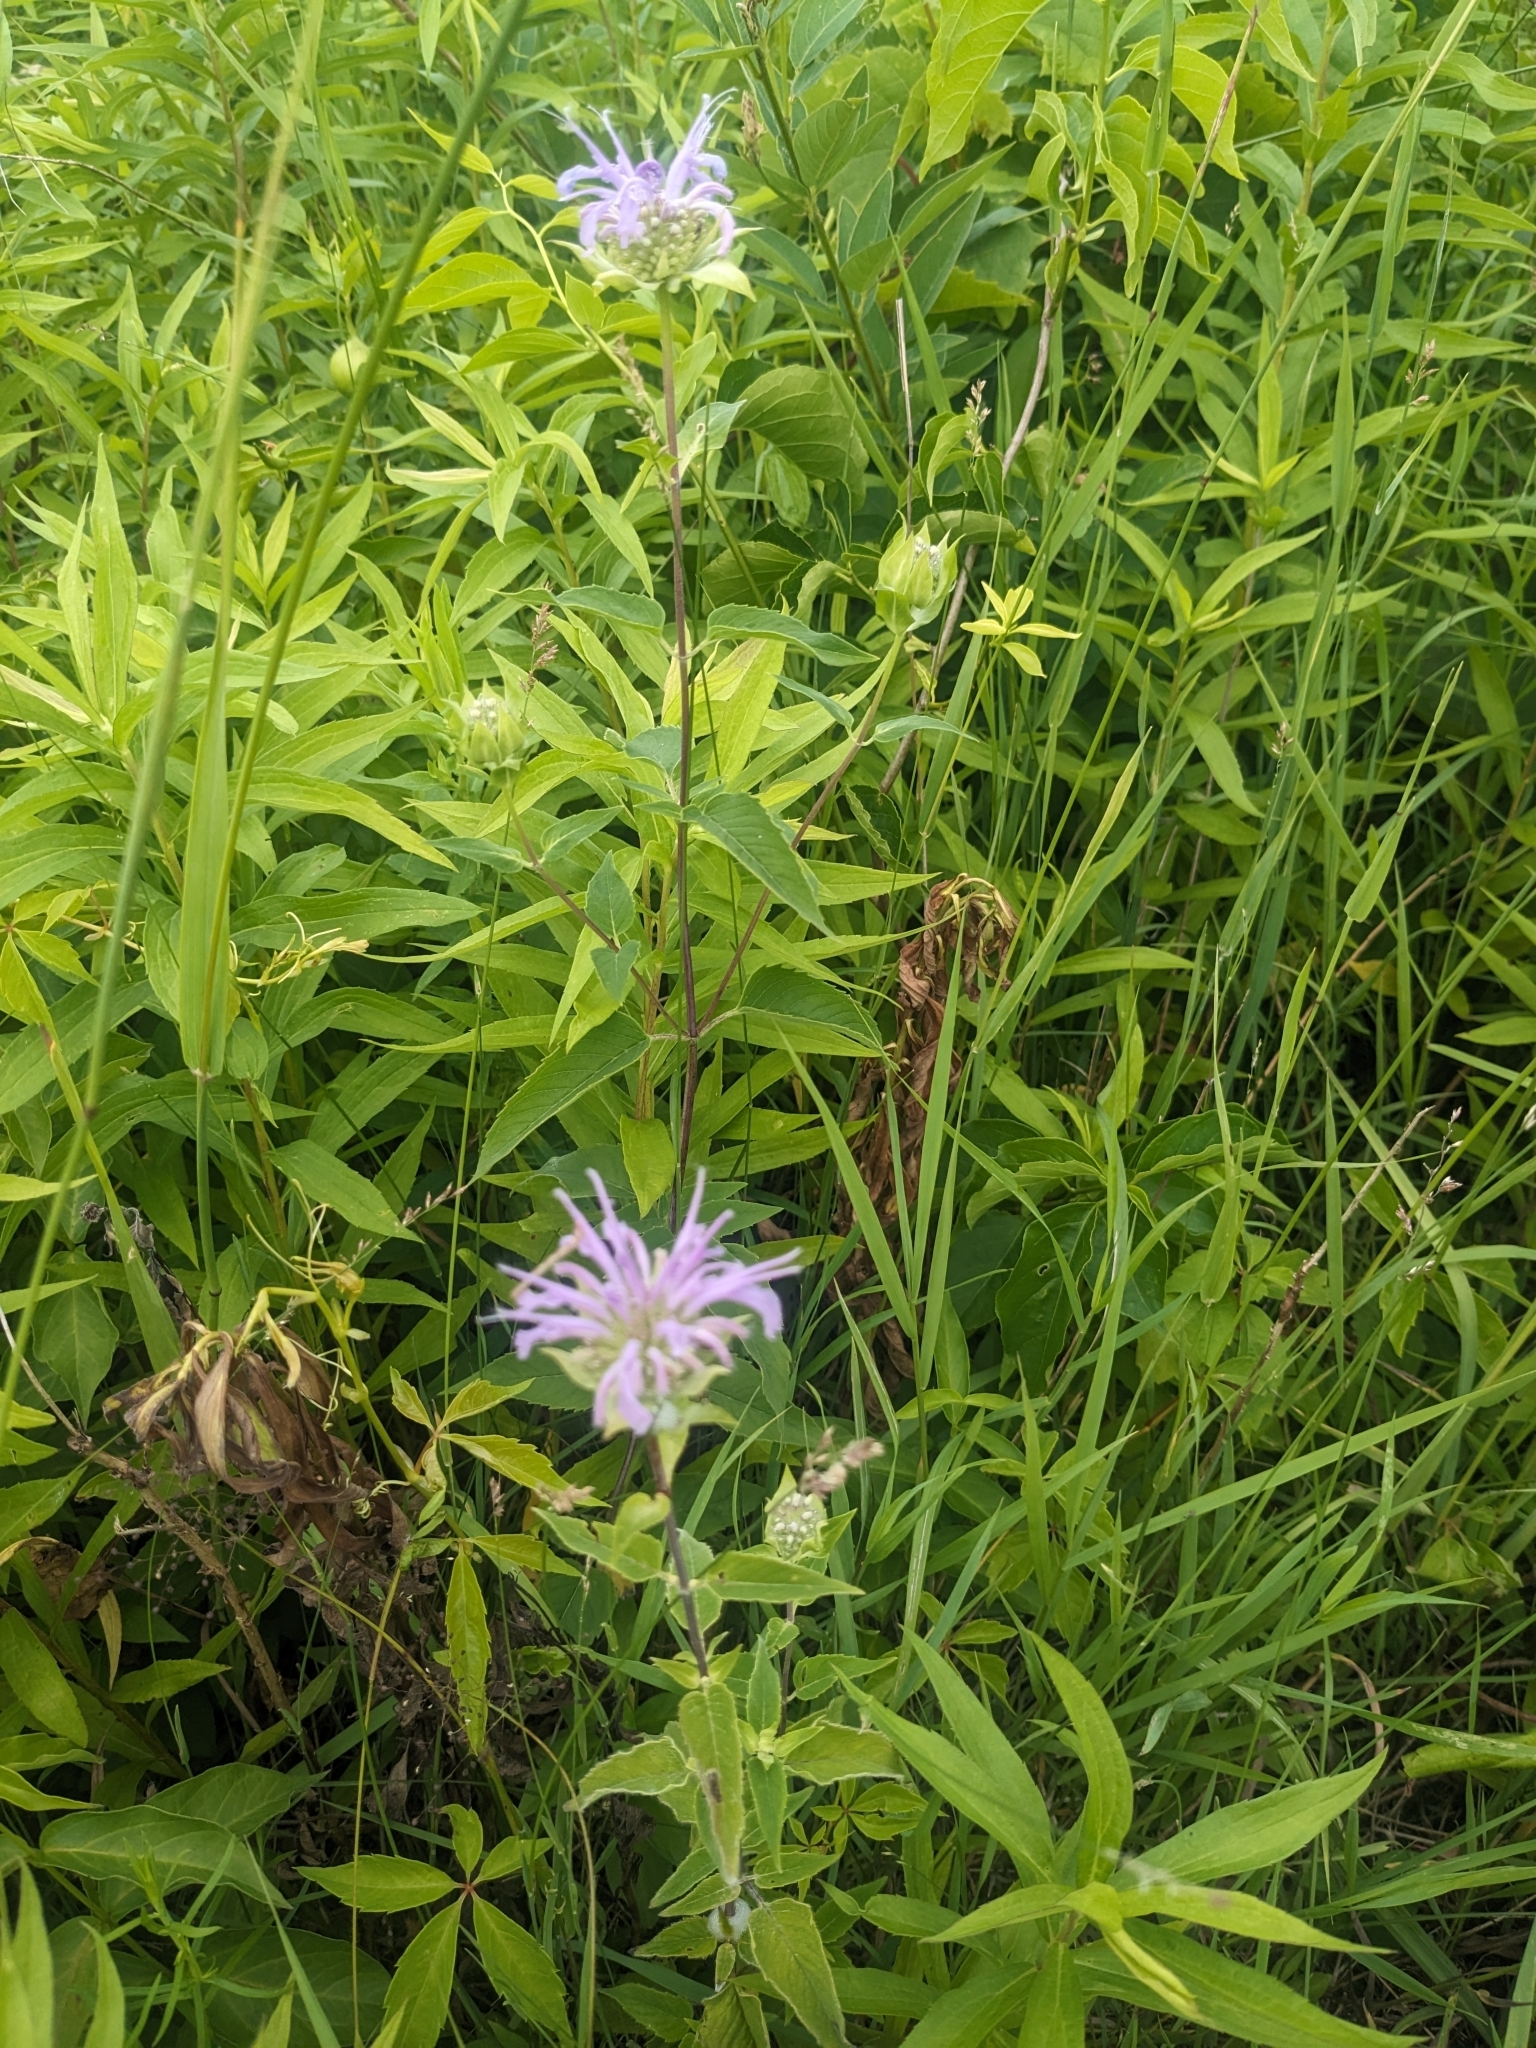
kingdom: Plantae
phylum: Tracheophyta
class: Magnoliopsida
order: Lamiales
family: Lamiaceae
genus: Monarda
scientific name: Monarda fistulosa
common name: Purple beebalm
